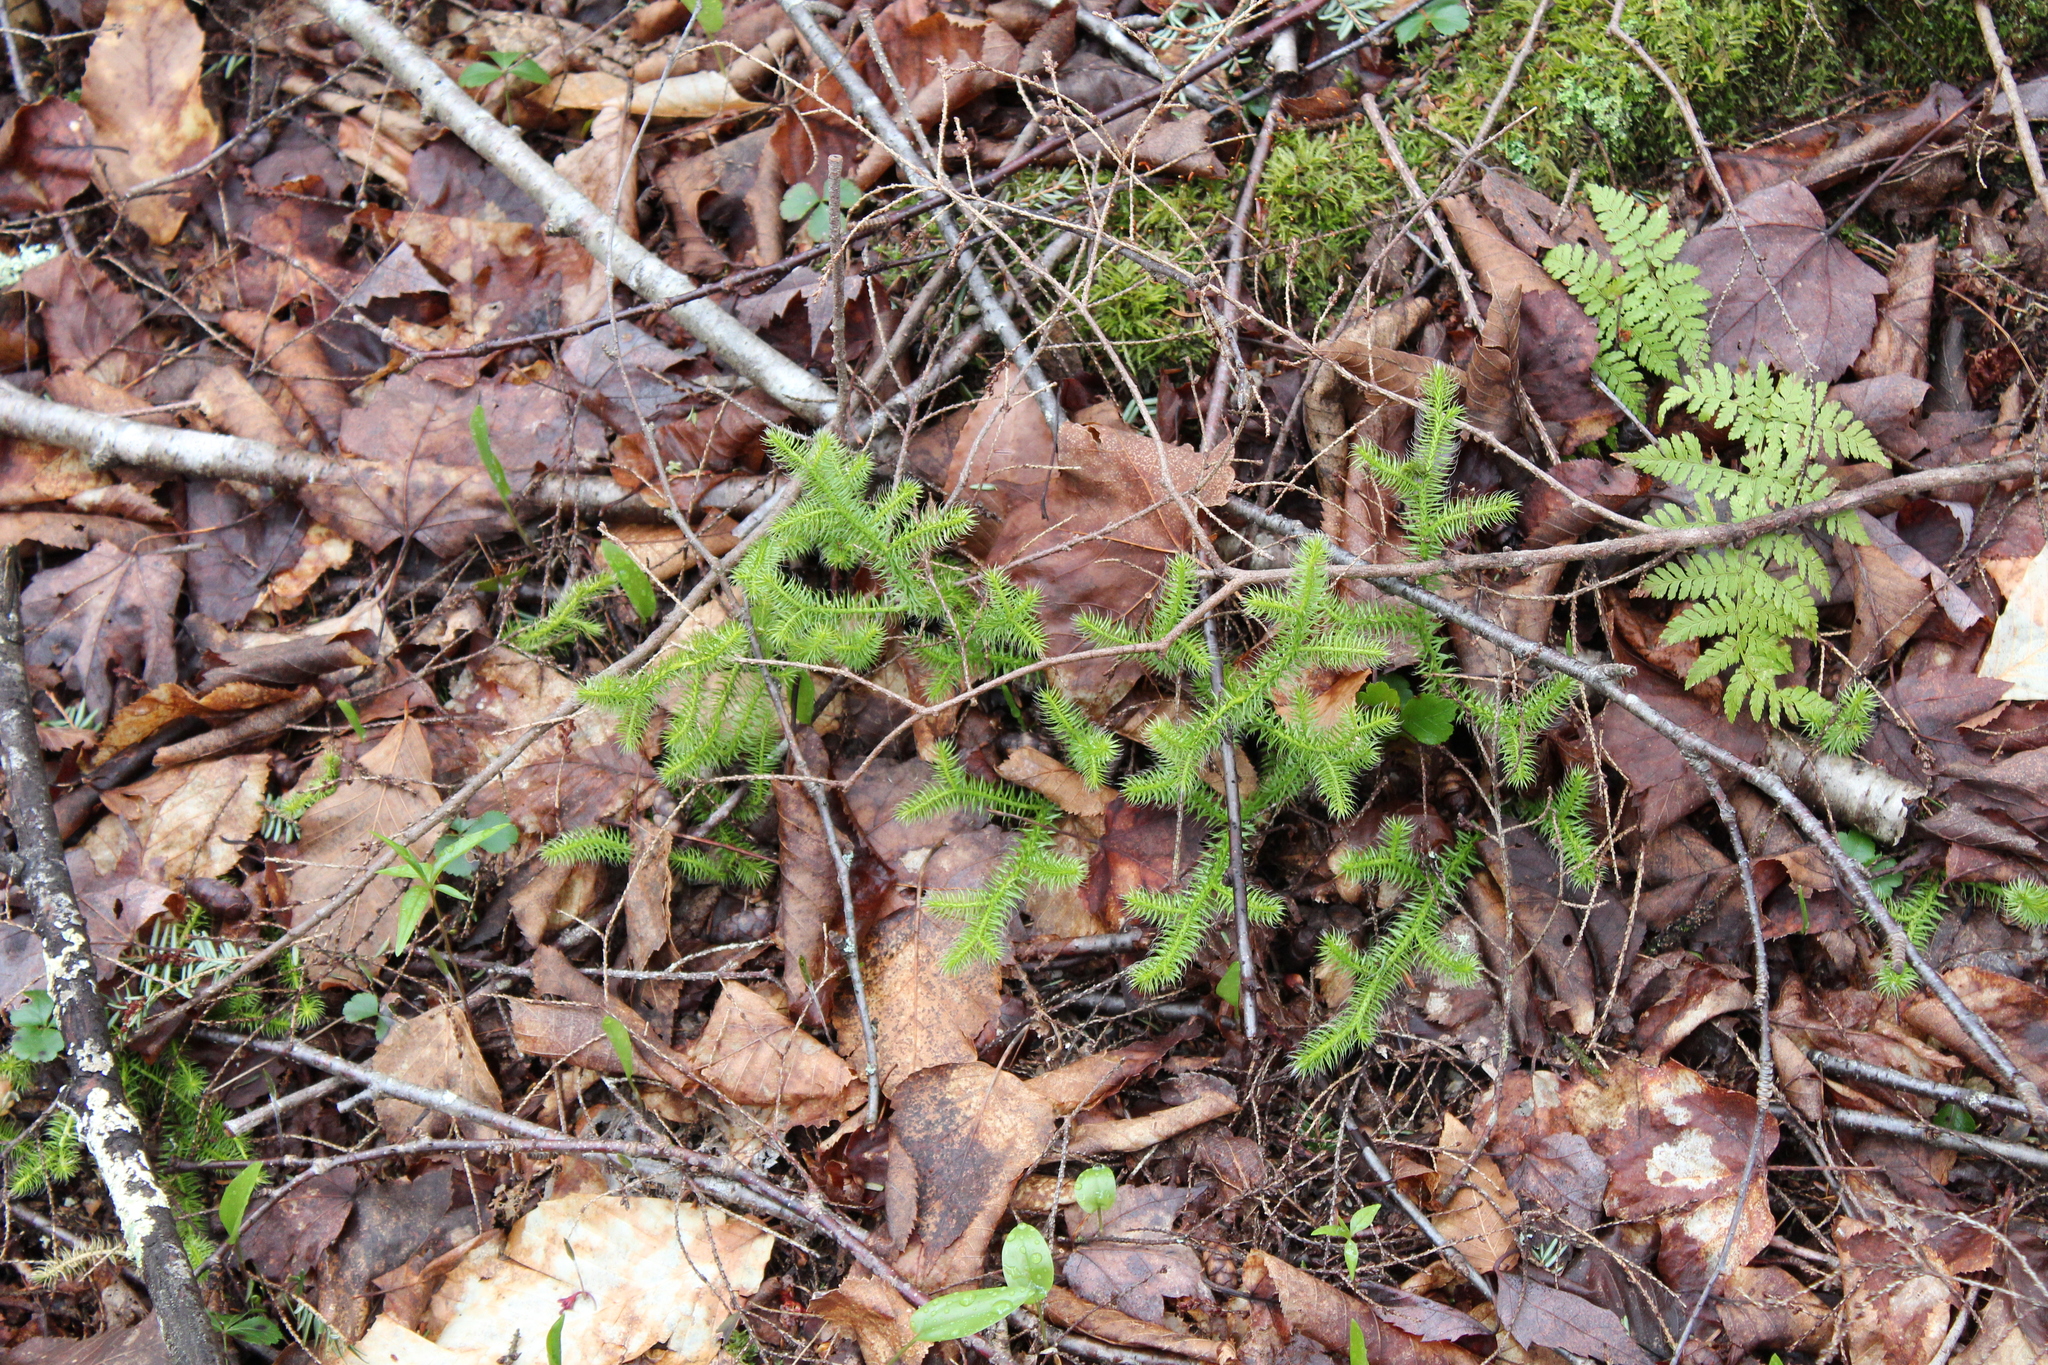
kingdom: Plantae
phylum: Tracheophyta
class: Lycopodiopsida
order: Lycopodiales
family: Lycopodiaceae
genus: Lycopodium
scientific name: Lycopodium clavatum
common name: Stag's-horn clubmoss
